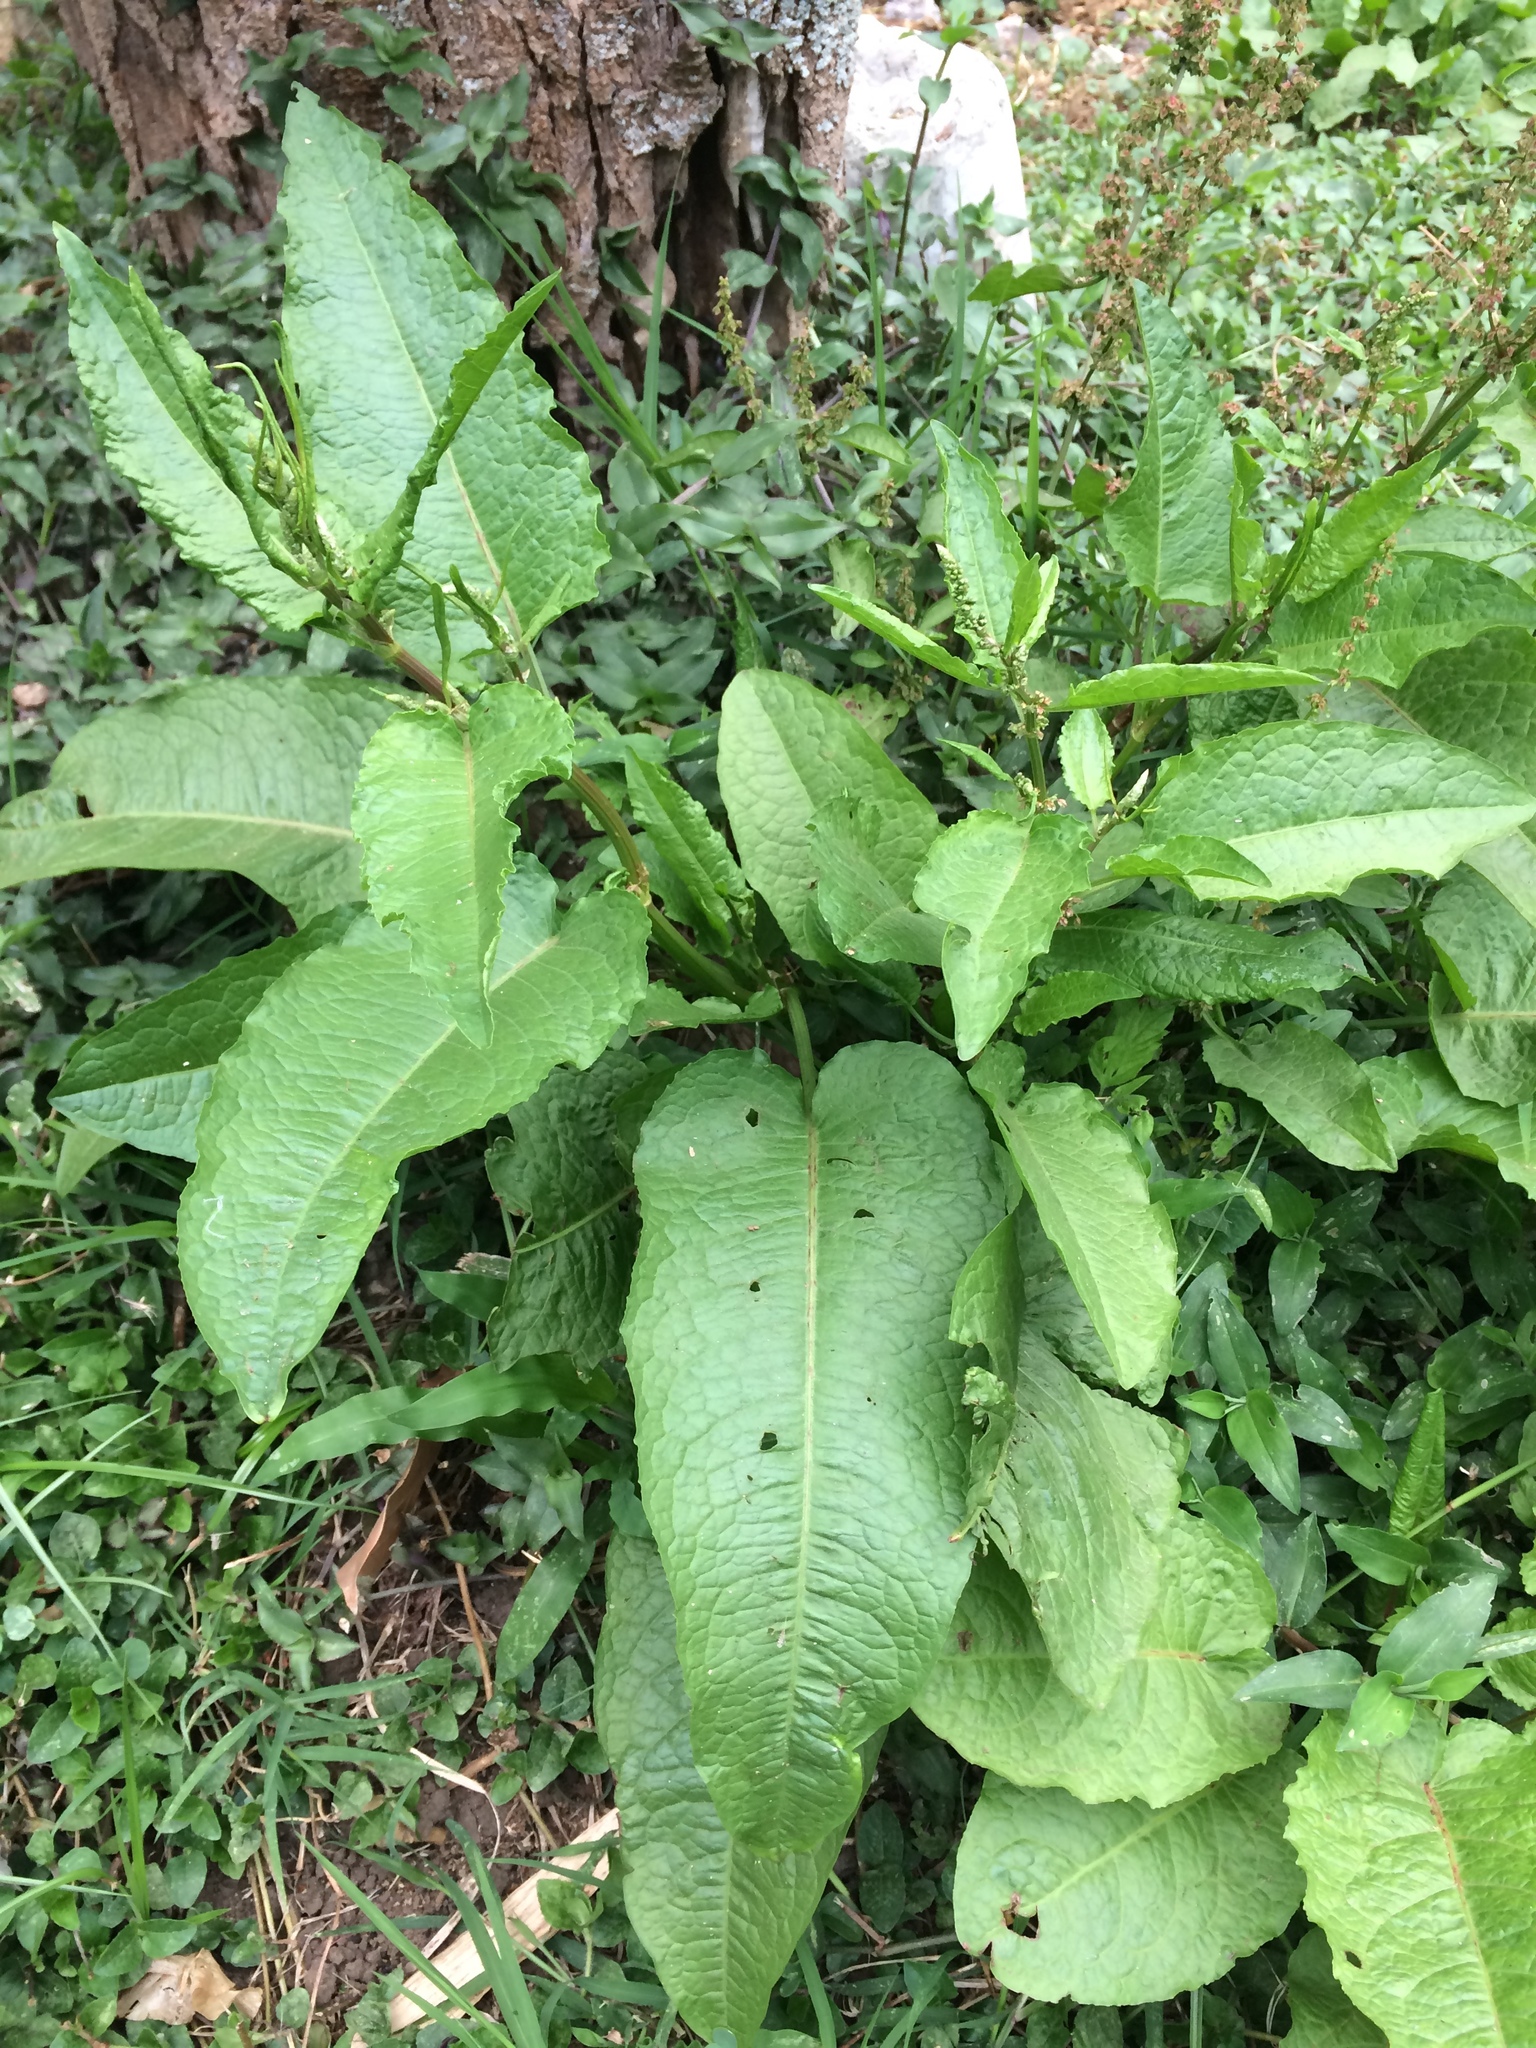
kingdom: Plantae
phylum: Tracheophyta
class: Magnoliopsida
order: Caryophyllales
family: Polygonaceae
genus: Rumex
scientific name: Rumex obtusifolius
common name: Bitter dock
